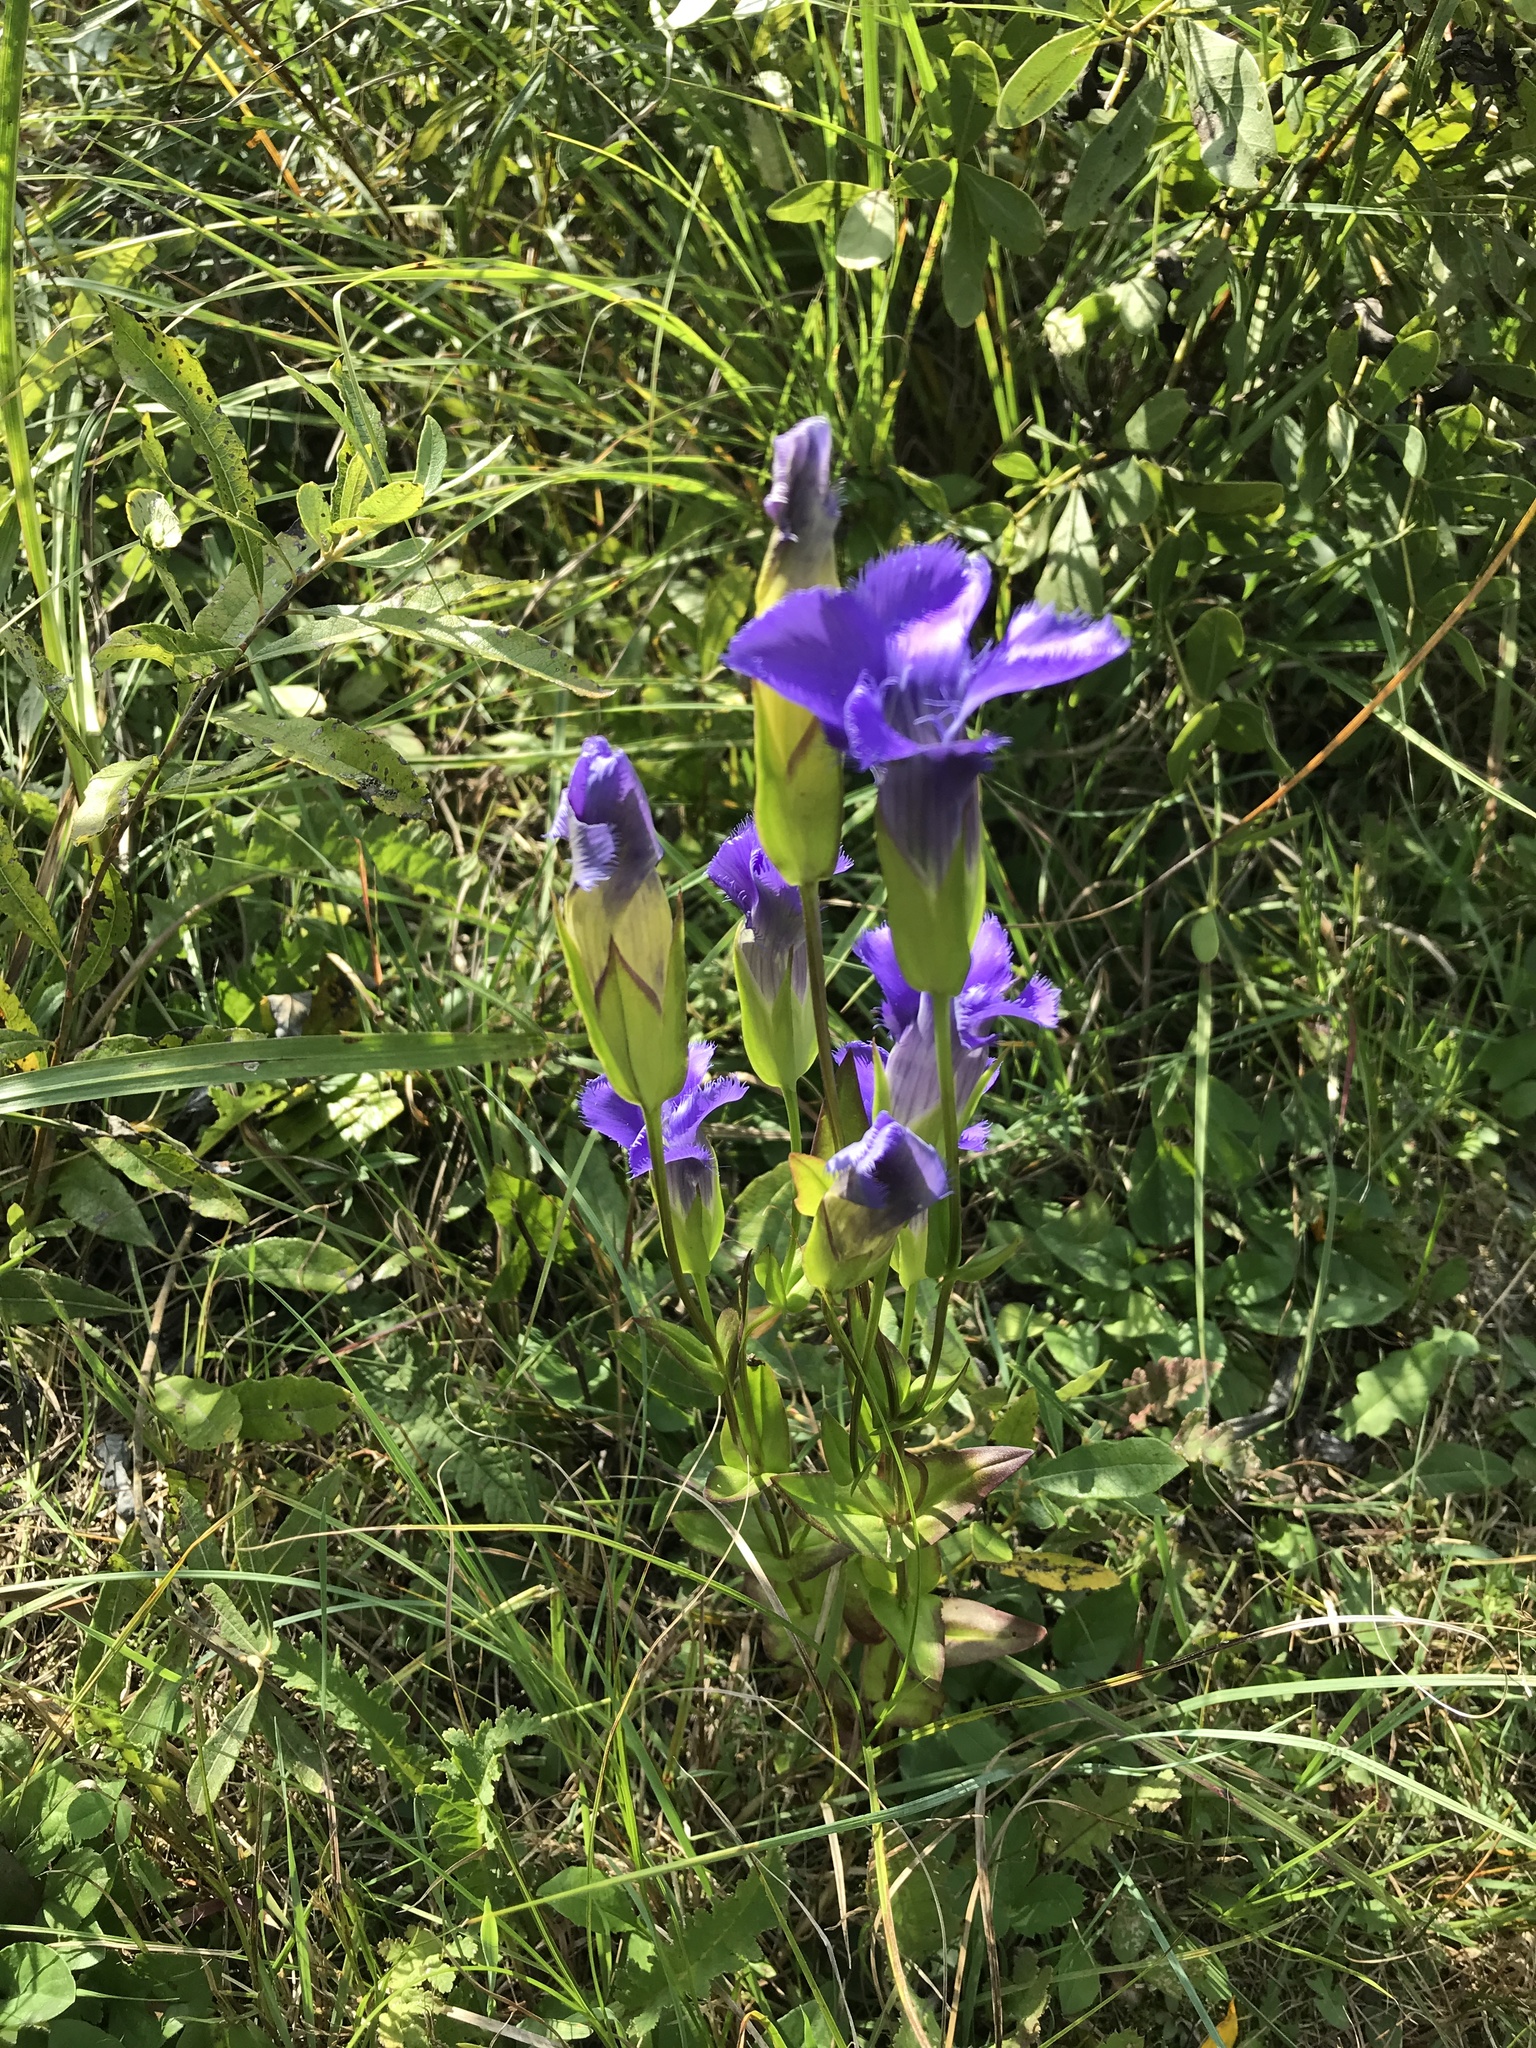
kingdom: Plantae
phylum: Tracheophyta
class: Magnoliopsida
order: Gentianales
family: Gentianaceae
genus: Gentianopsis
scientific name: Gentianopsis crinita
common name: Fringed-gentian
